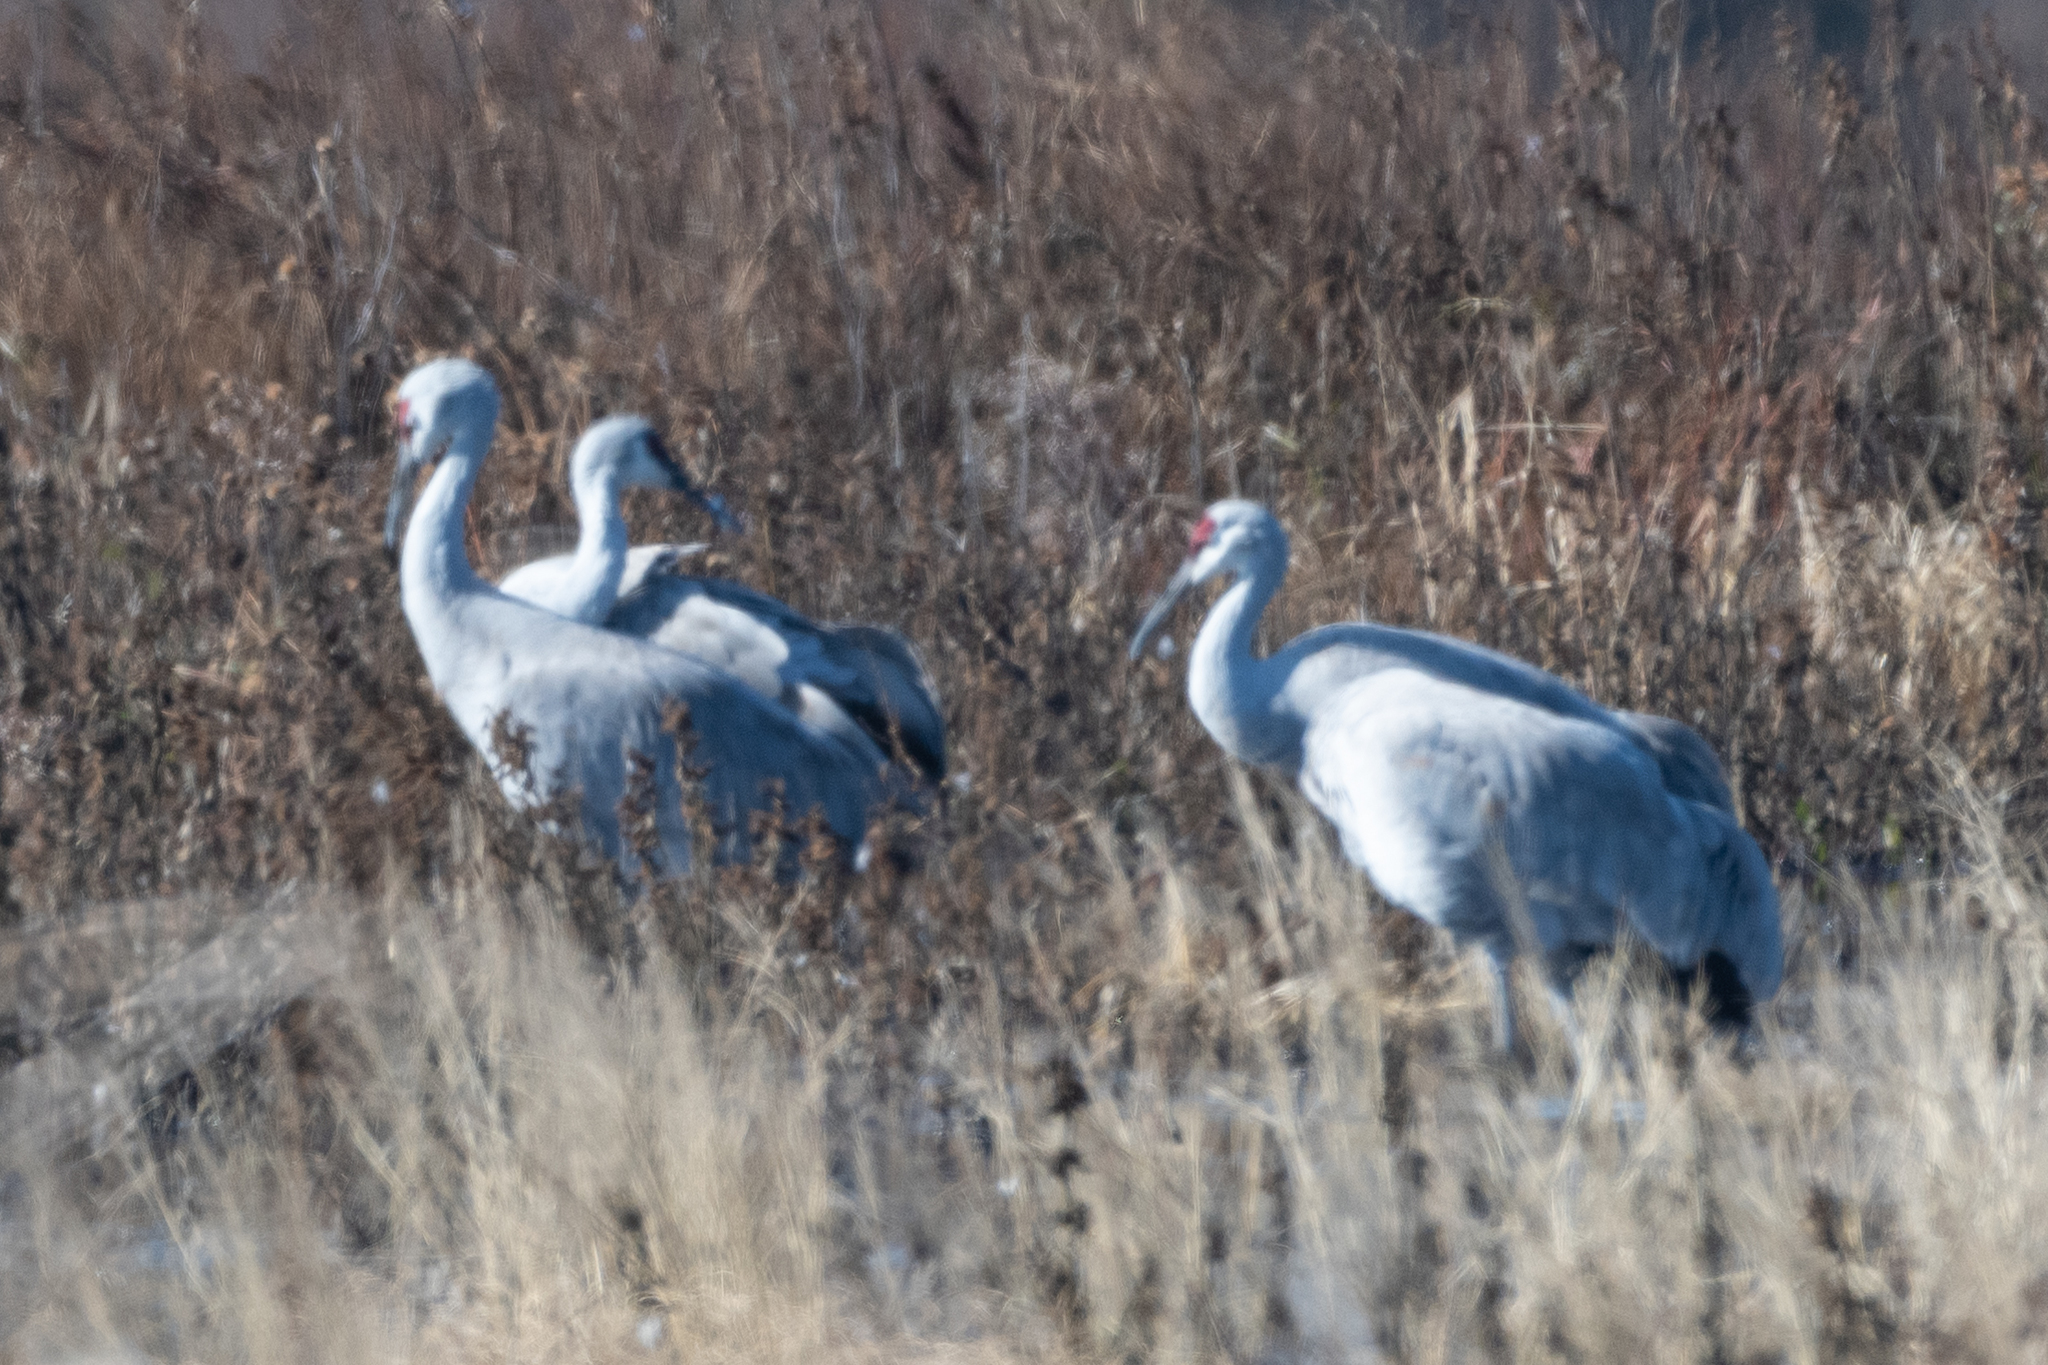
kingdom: Animalia
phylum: Chordata
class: Aves
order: Gruiformes
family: Gruidae
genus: Grus
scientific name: Grus canadensis
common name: Sandhill crane
